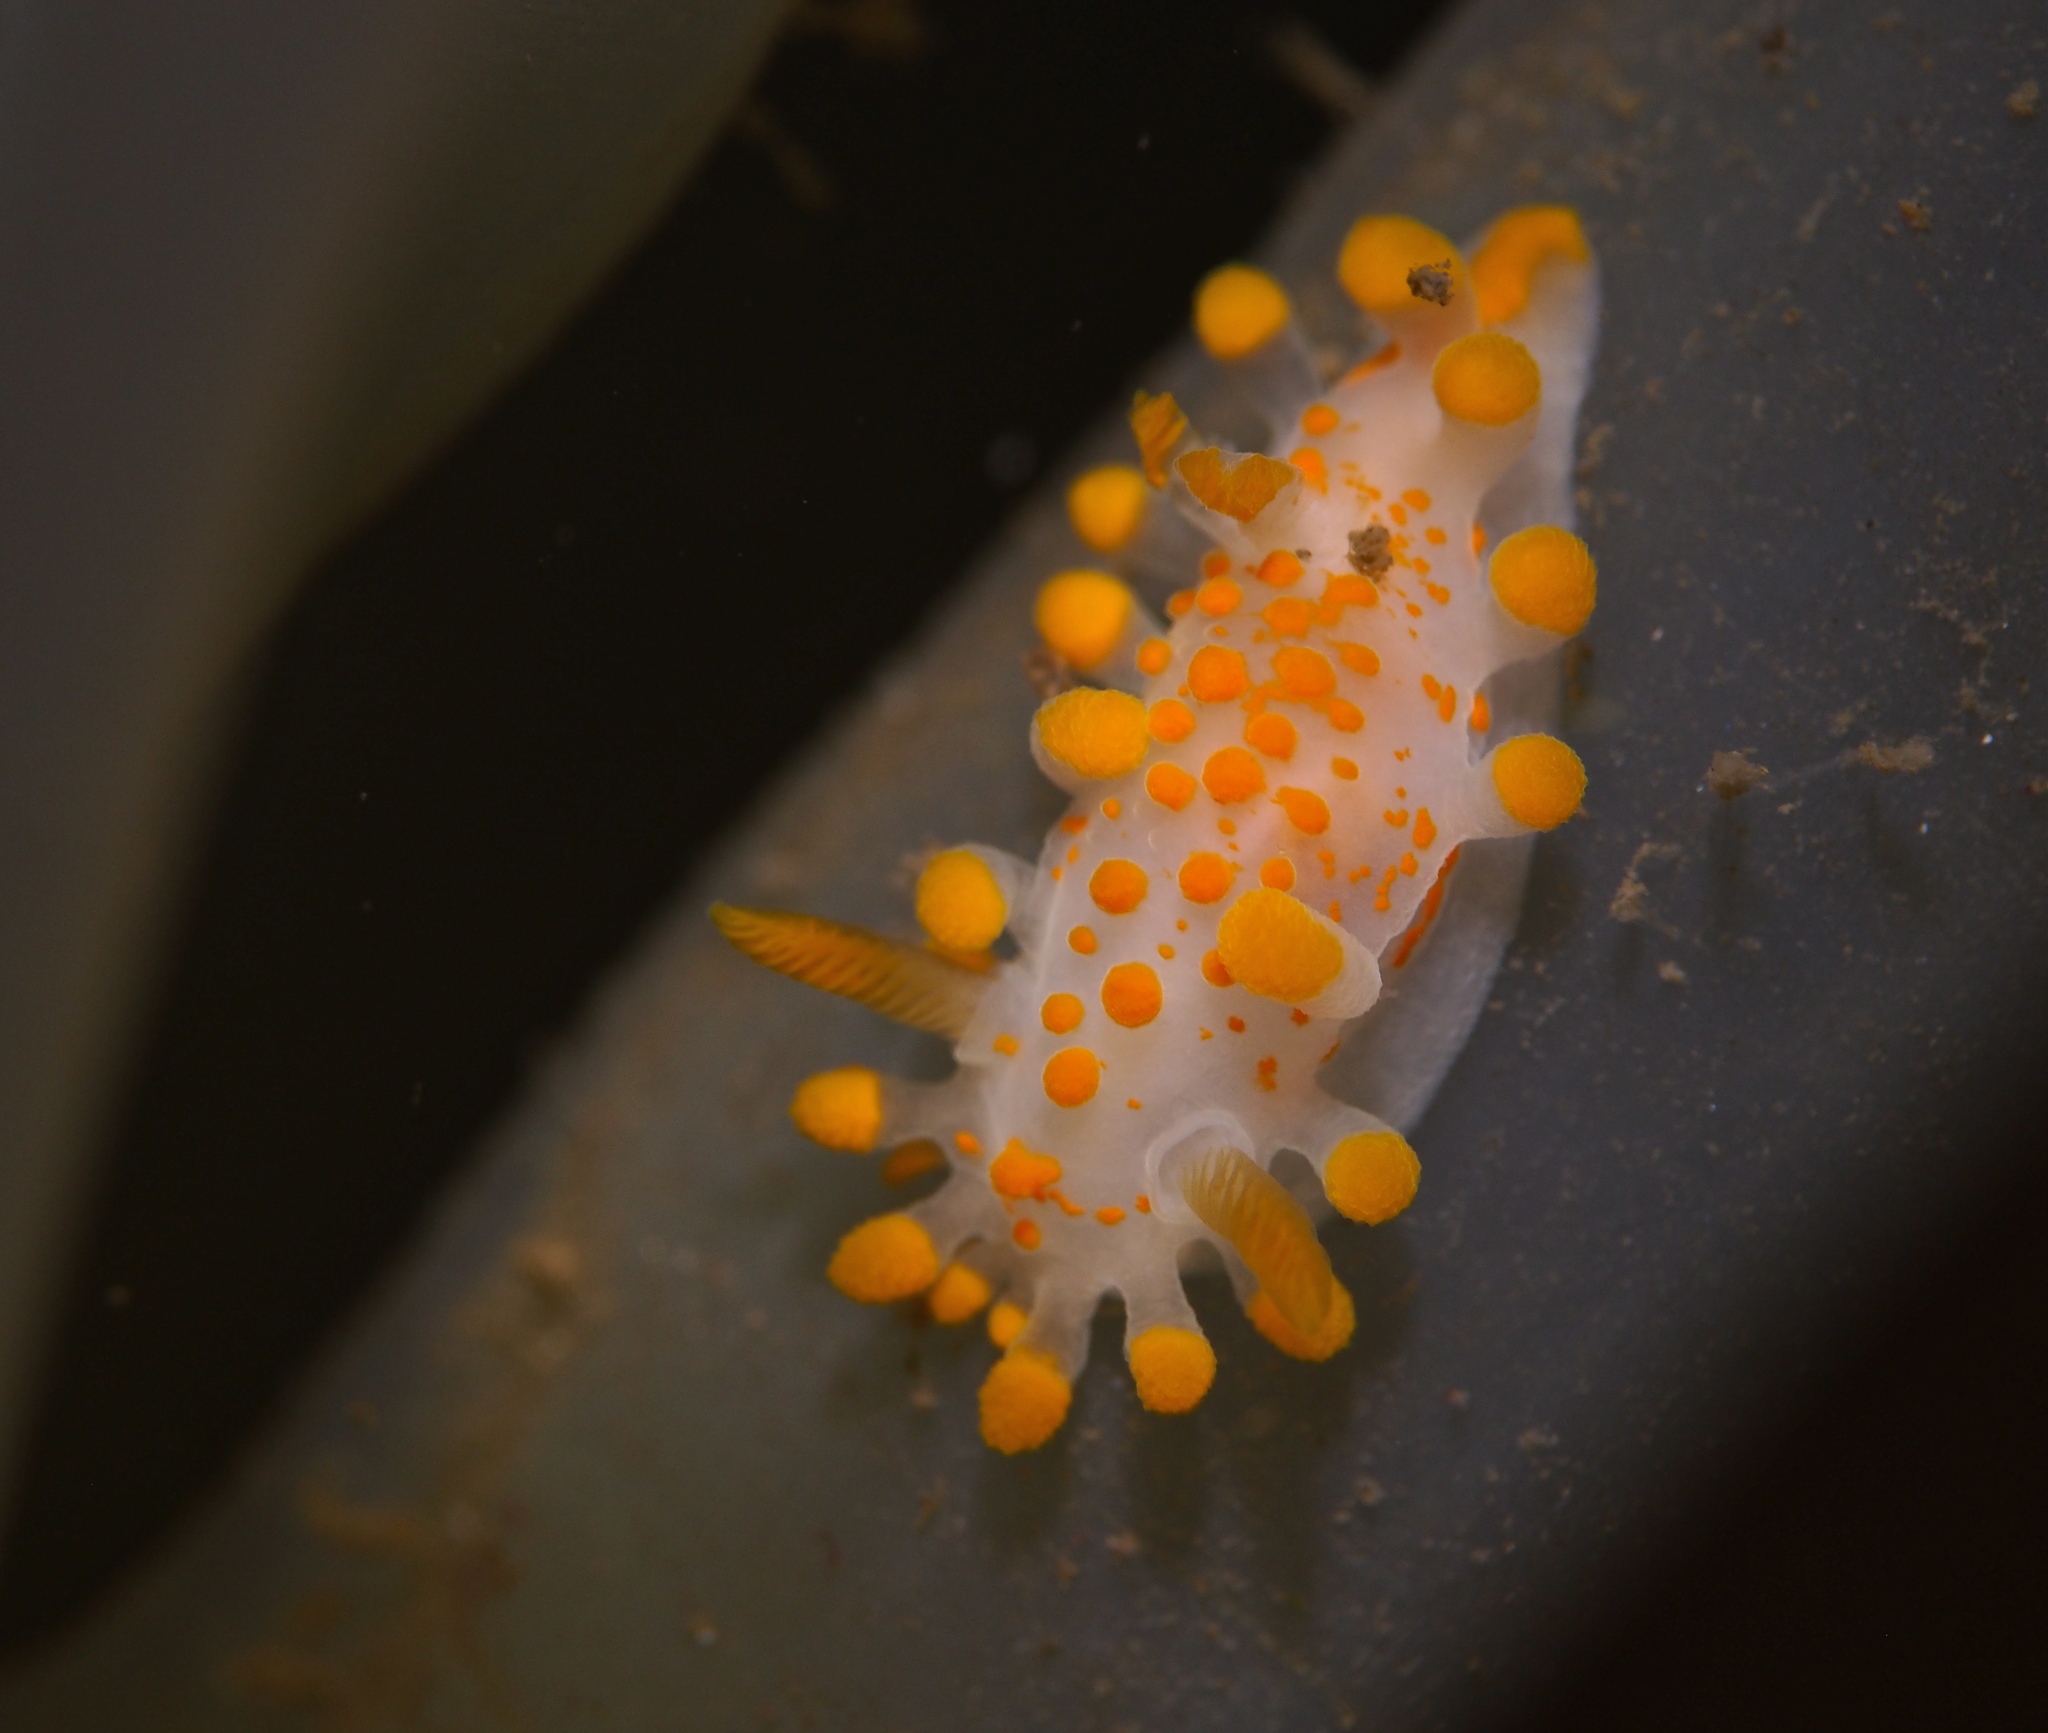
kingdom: Animalia
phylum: Mollusca
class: Gastropoda
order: Nudibranchia
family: Polyceridae
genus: Limacia
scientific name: Limacia clavigera
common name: Orange-clubbed sea slug
